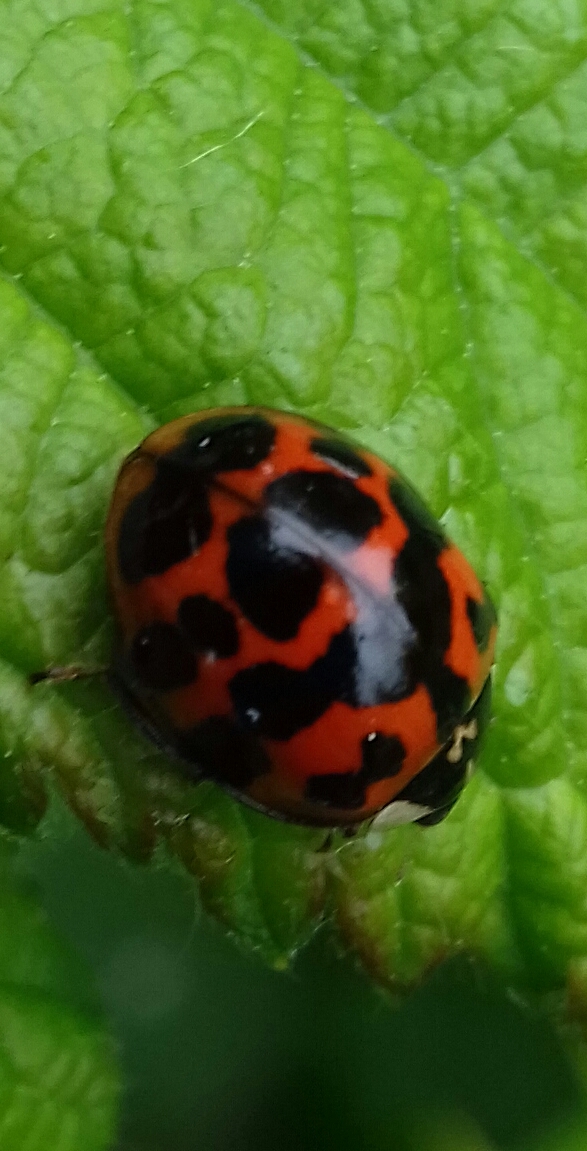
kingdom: Animalia
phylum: Arthropoda
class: Insecta
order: Coleoptera
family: Coccinellidae
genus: Harmonia
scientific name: Harmonia axyridis
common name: Harlequin ladybird
